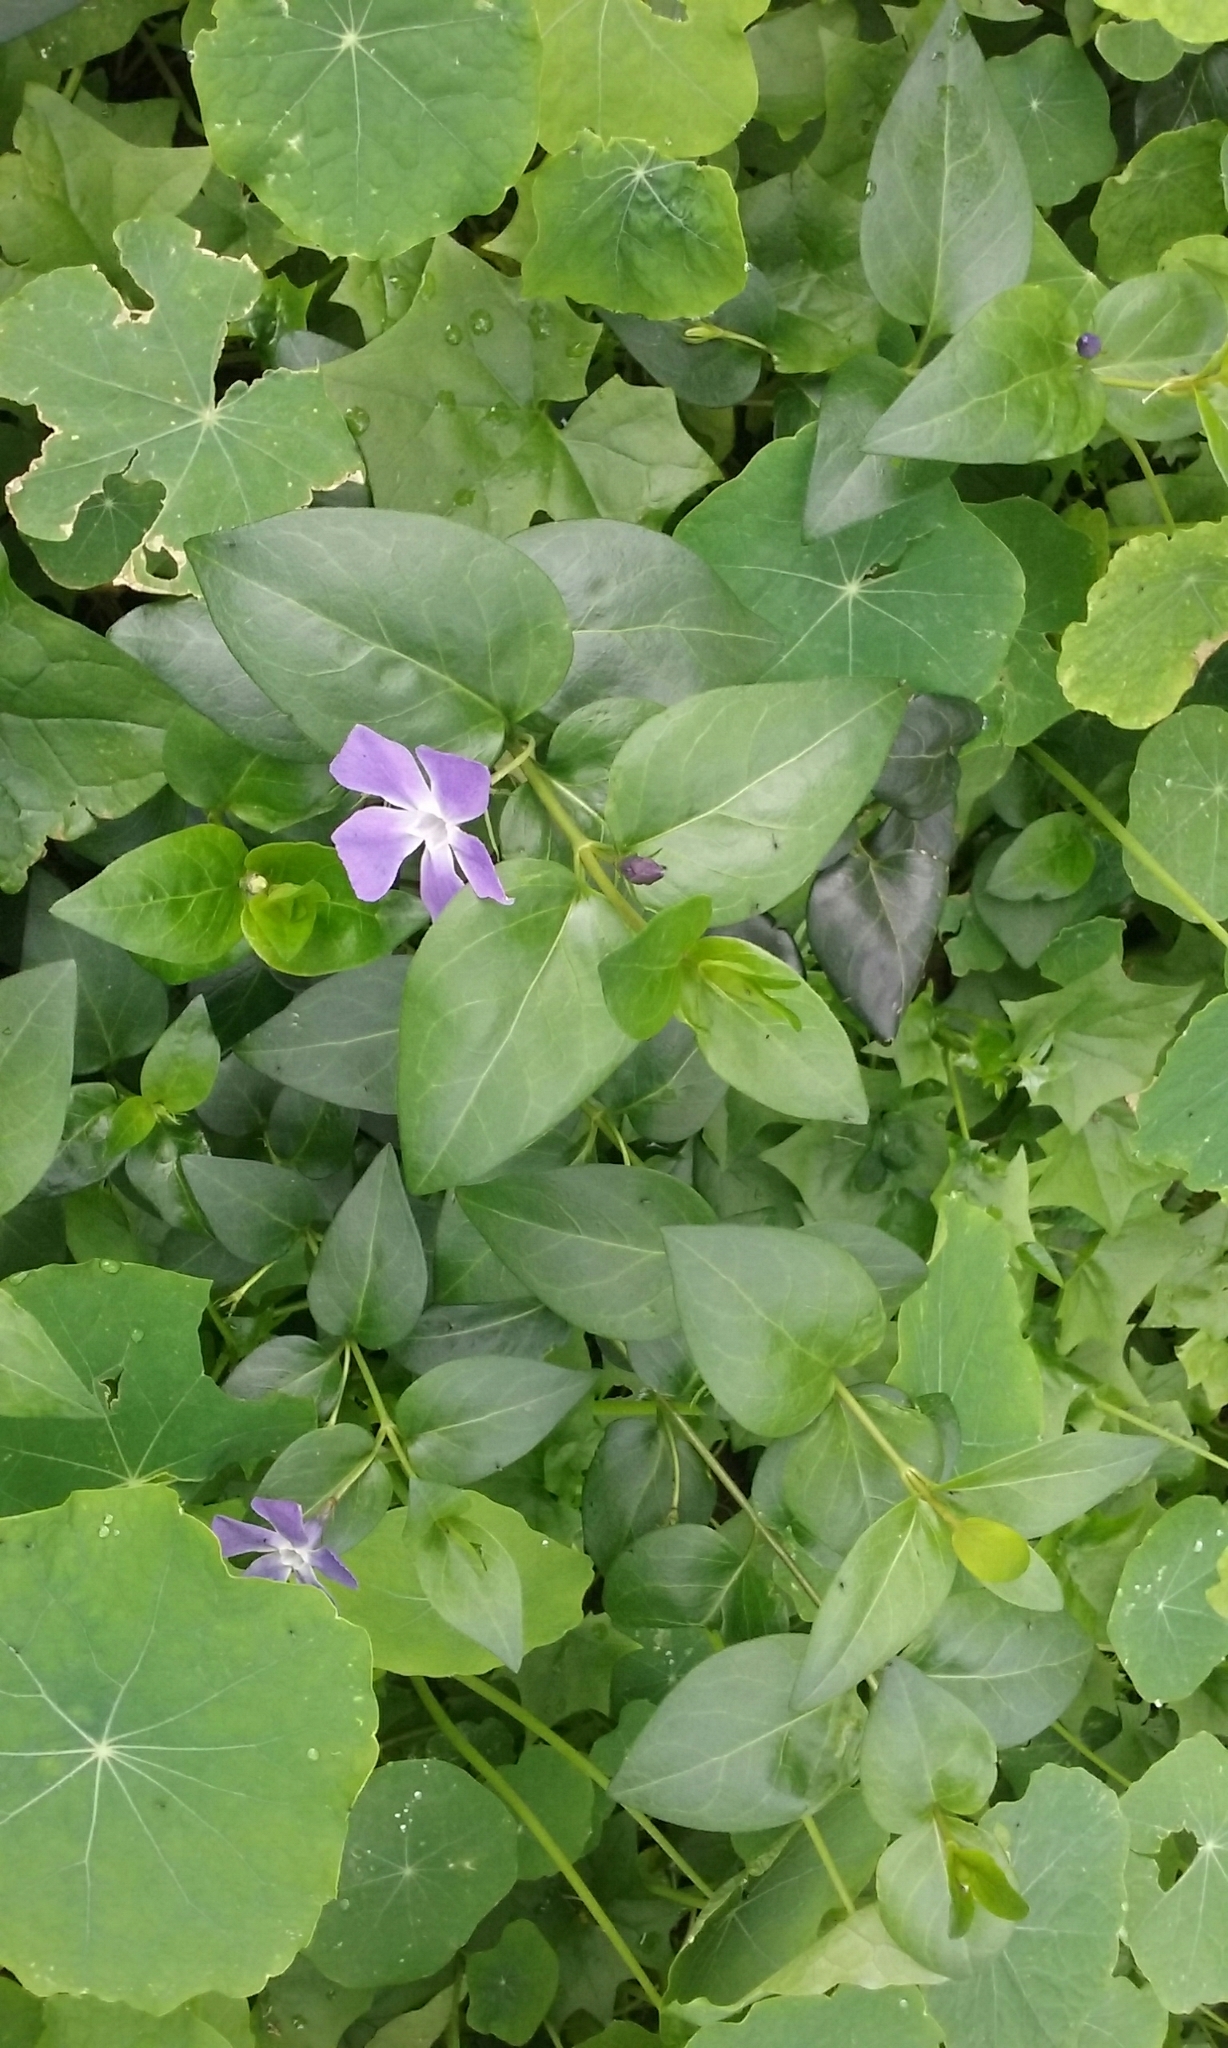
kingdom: Plantae
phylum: Tracheophyta
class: Magnoliopsida
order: Gentianales
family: Apocynaceae
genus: Vinca
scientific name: Vinca major
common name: Greater periwinkle
